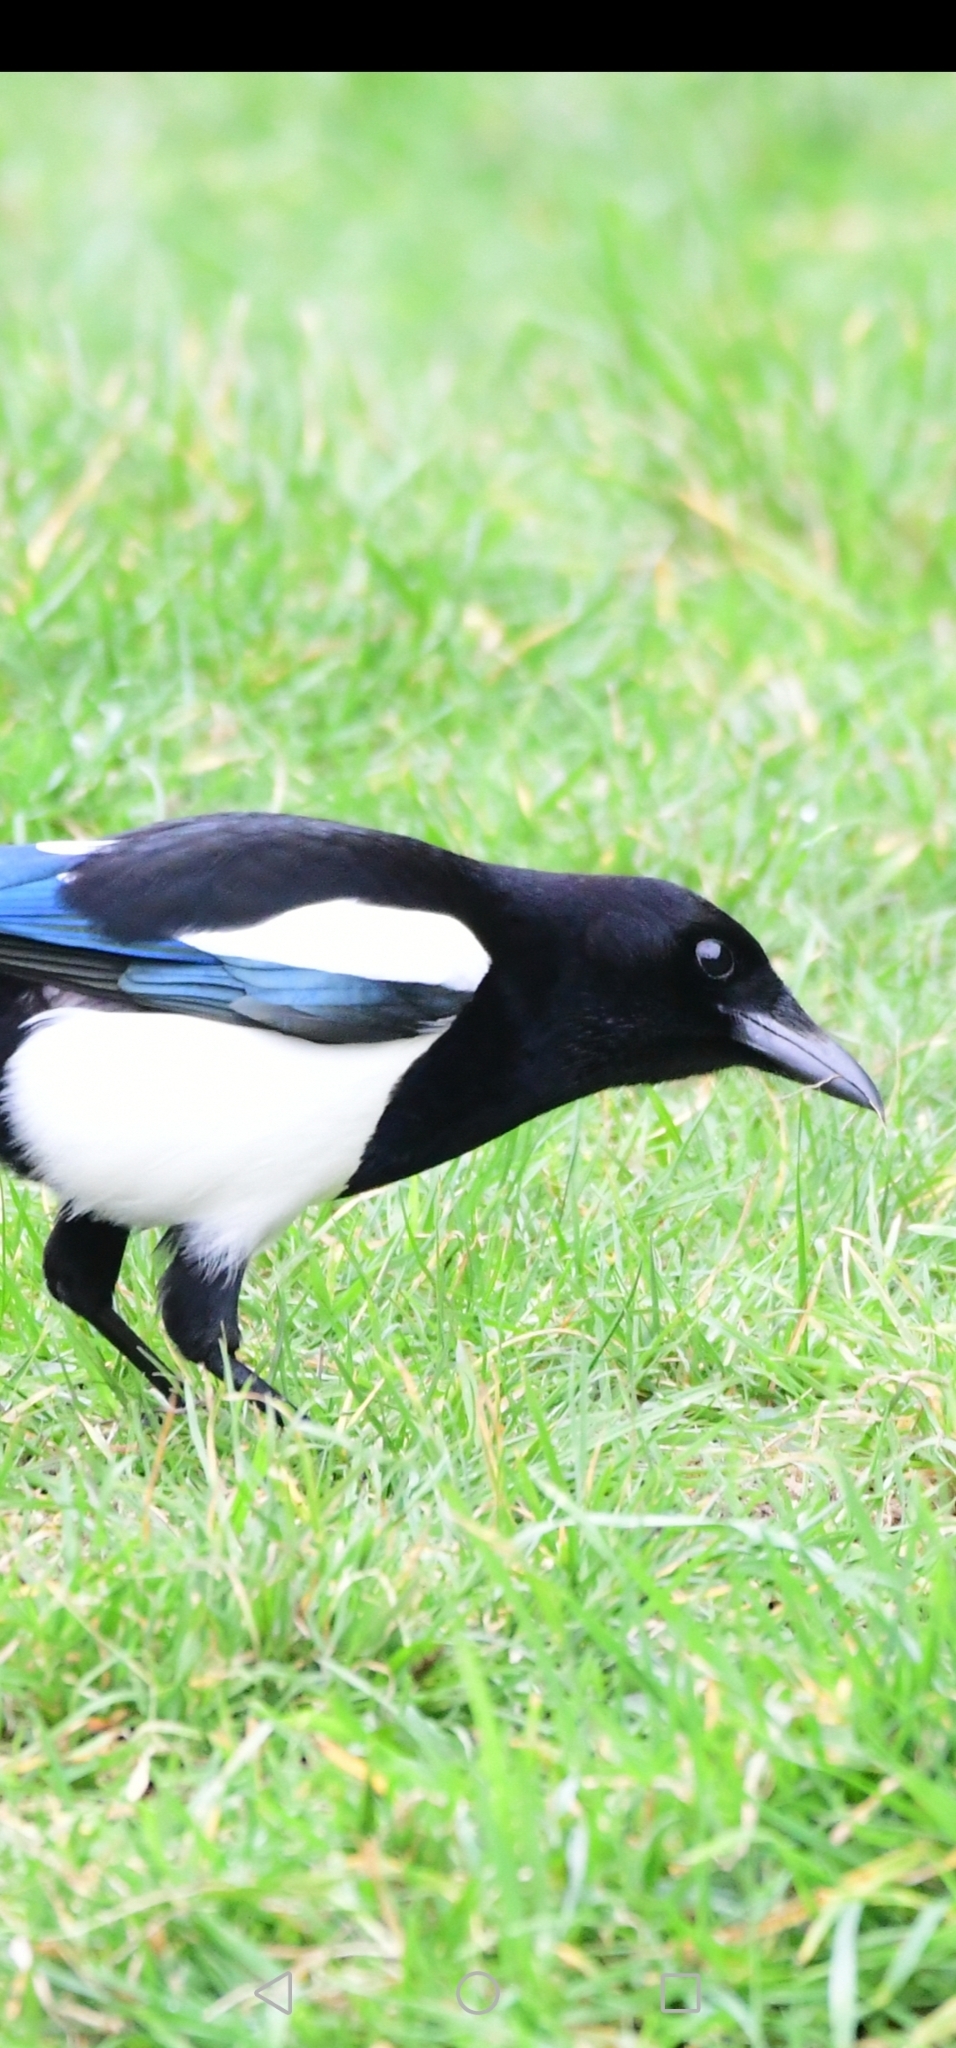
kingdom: Animalia
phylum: Chordata
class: Aves
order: Passeriformes
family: Corvidae
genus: Pica
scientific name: Pica pica
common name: Eurasian magpie
